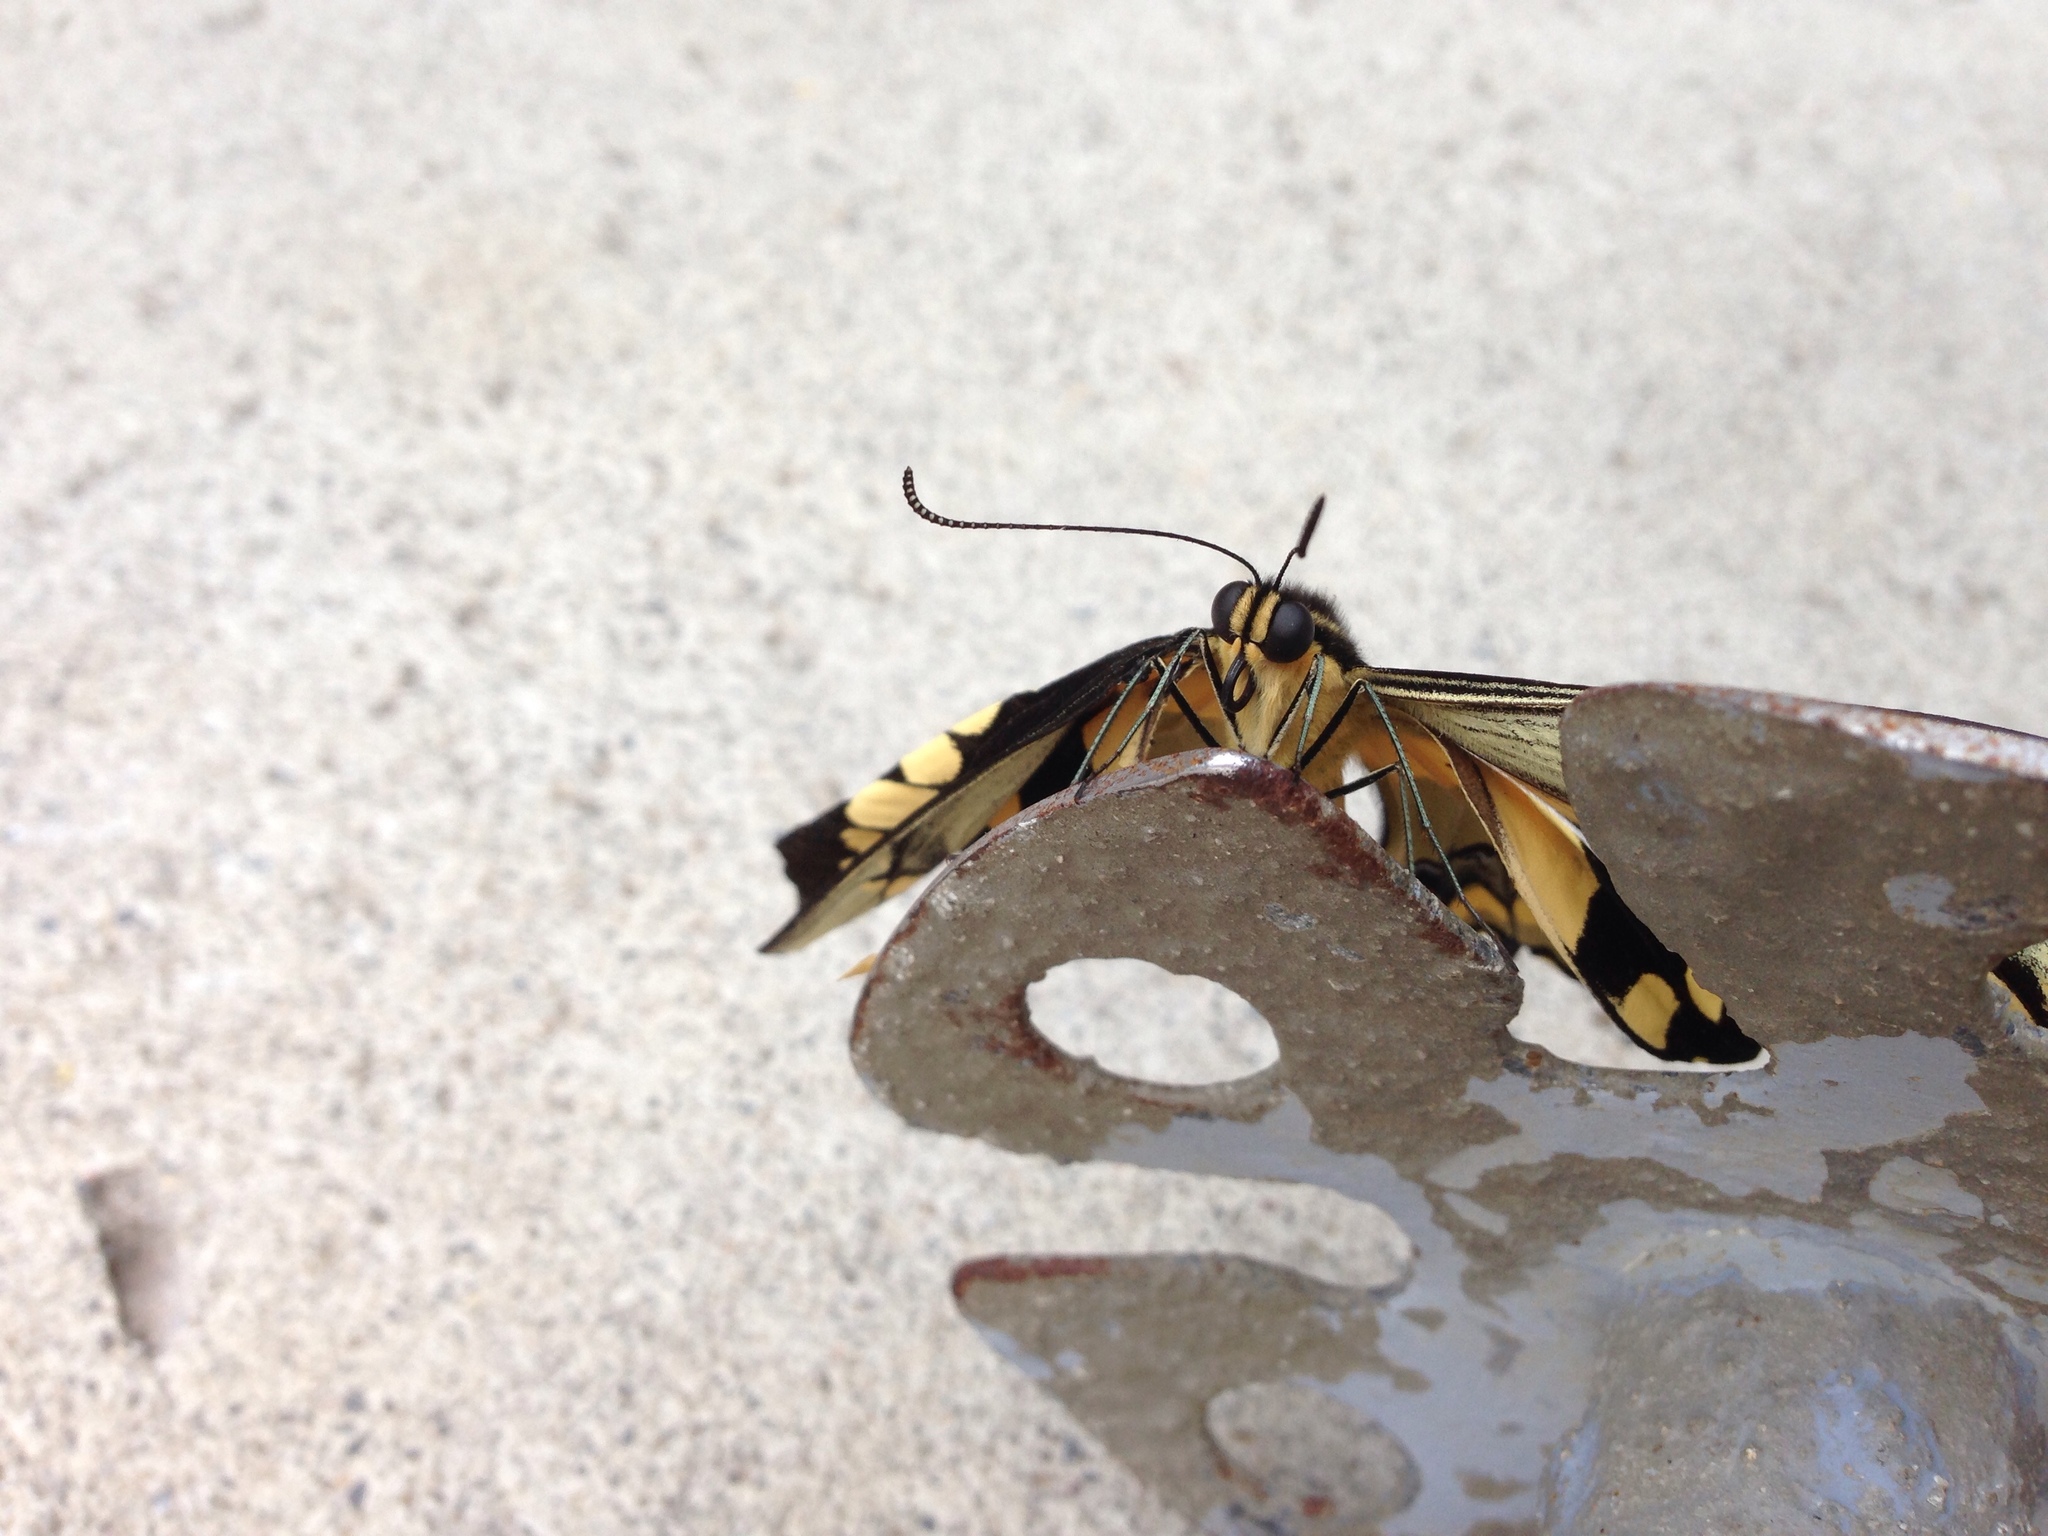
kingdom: Animalia
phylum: Arthropoda
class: Insecta
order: Lepidoptera
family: Papilionidae
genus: Papilio
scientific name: Papilio rumiko
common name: Western giant swallowtail
